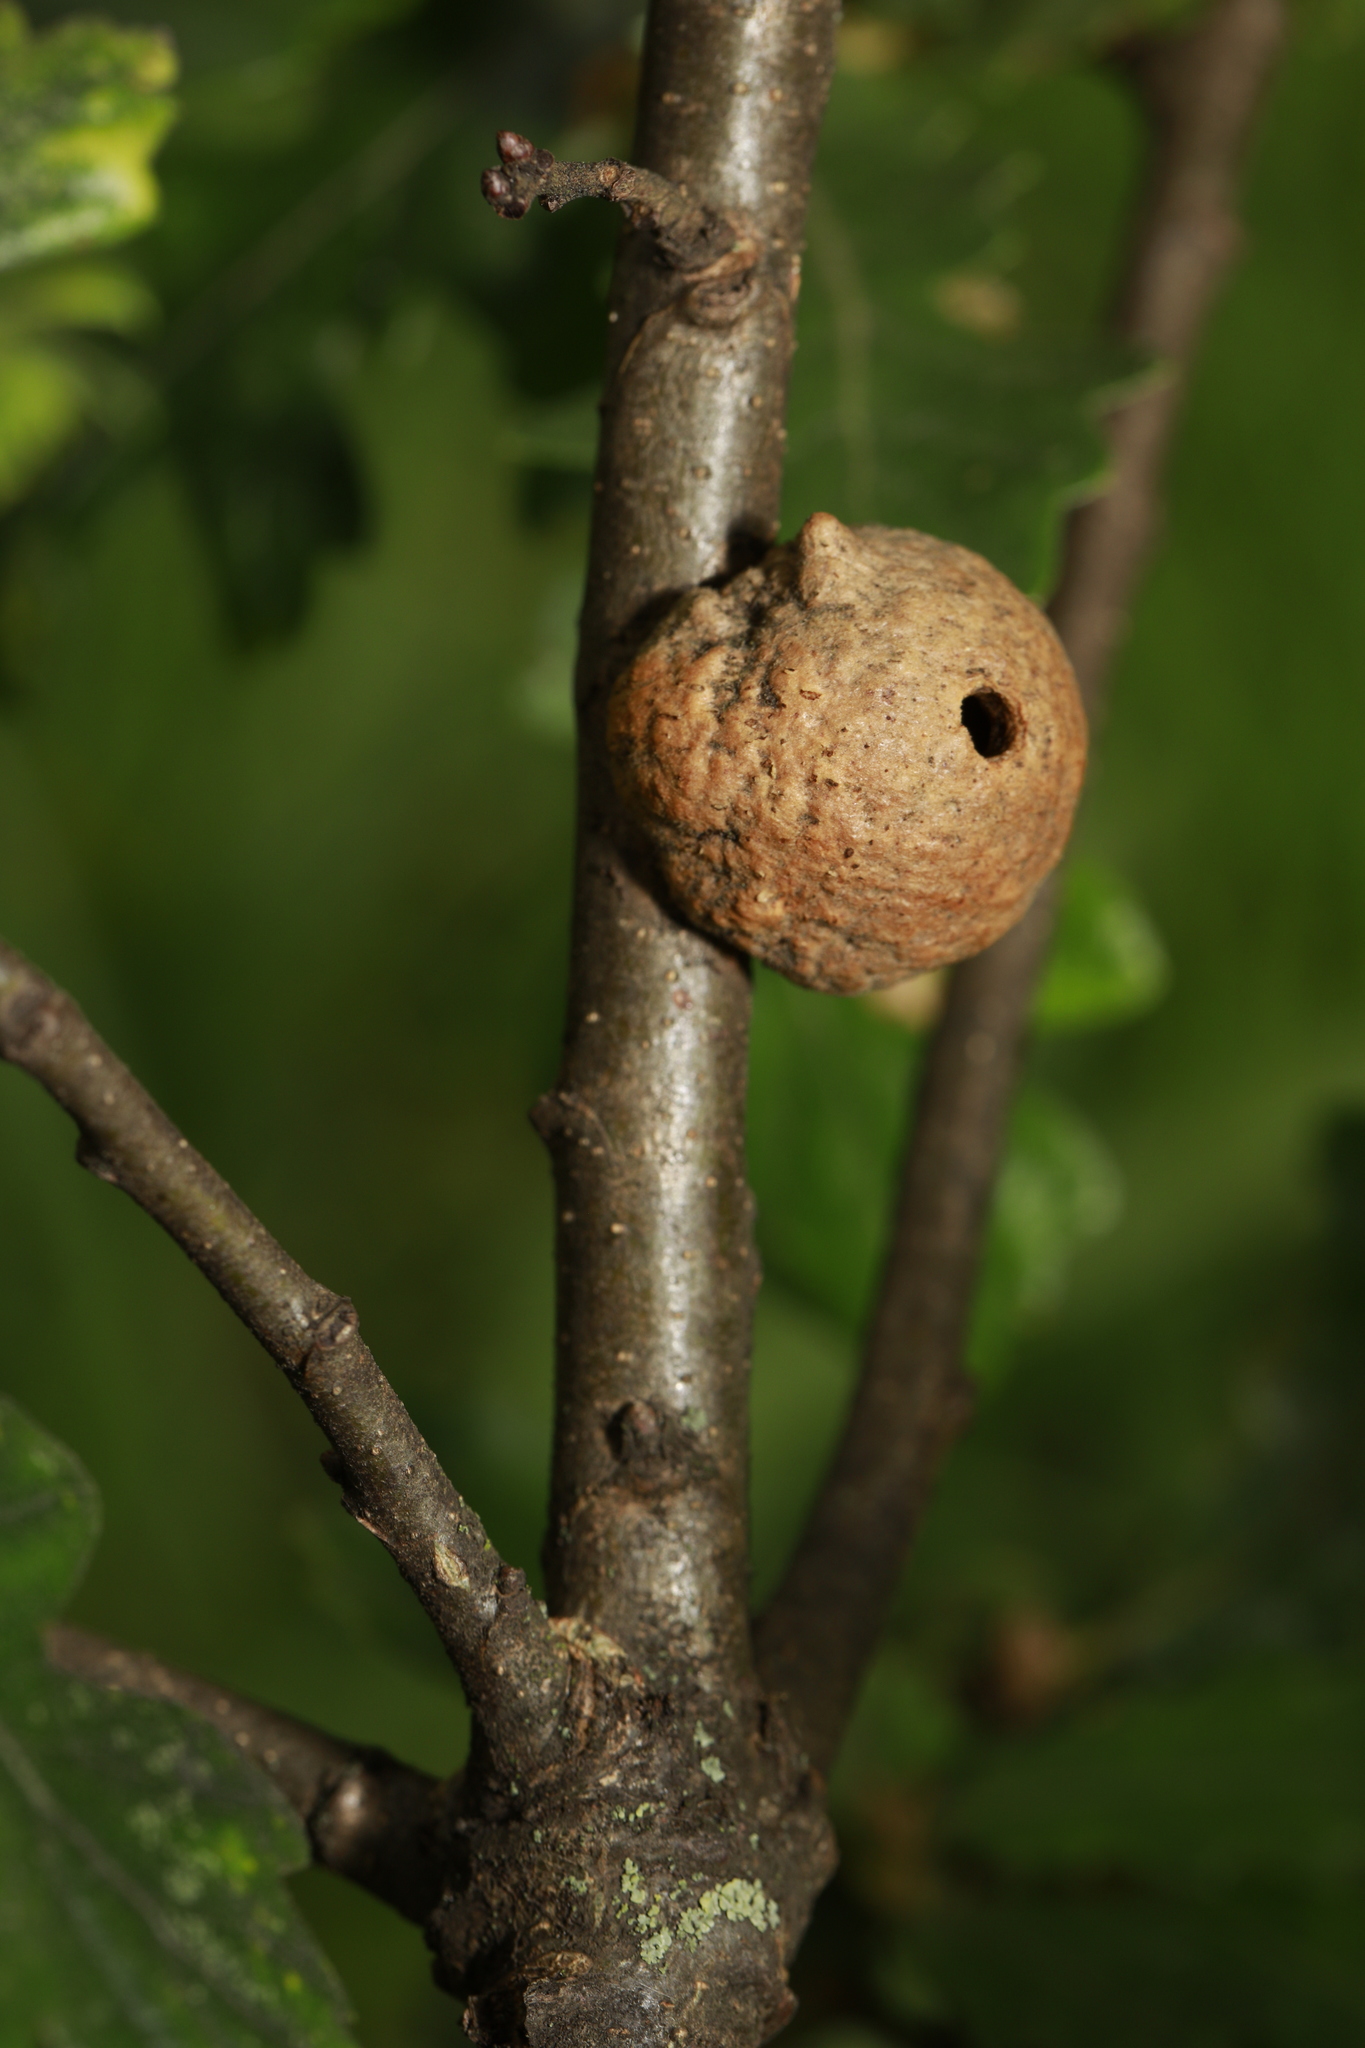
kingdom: Animalia
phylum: Arthropoda
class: Insecta
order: Hymenoptera
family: Cynipidae
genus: Aphelonyx
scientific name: Aphelonyx cerricola
